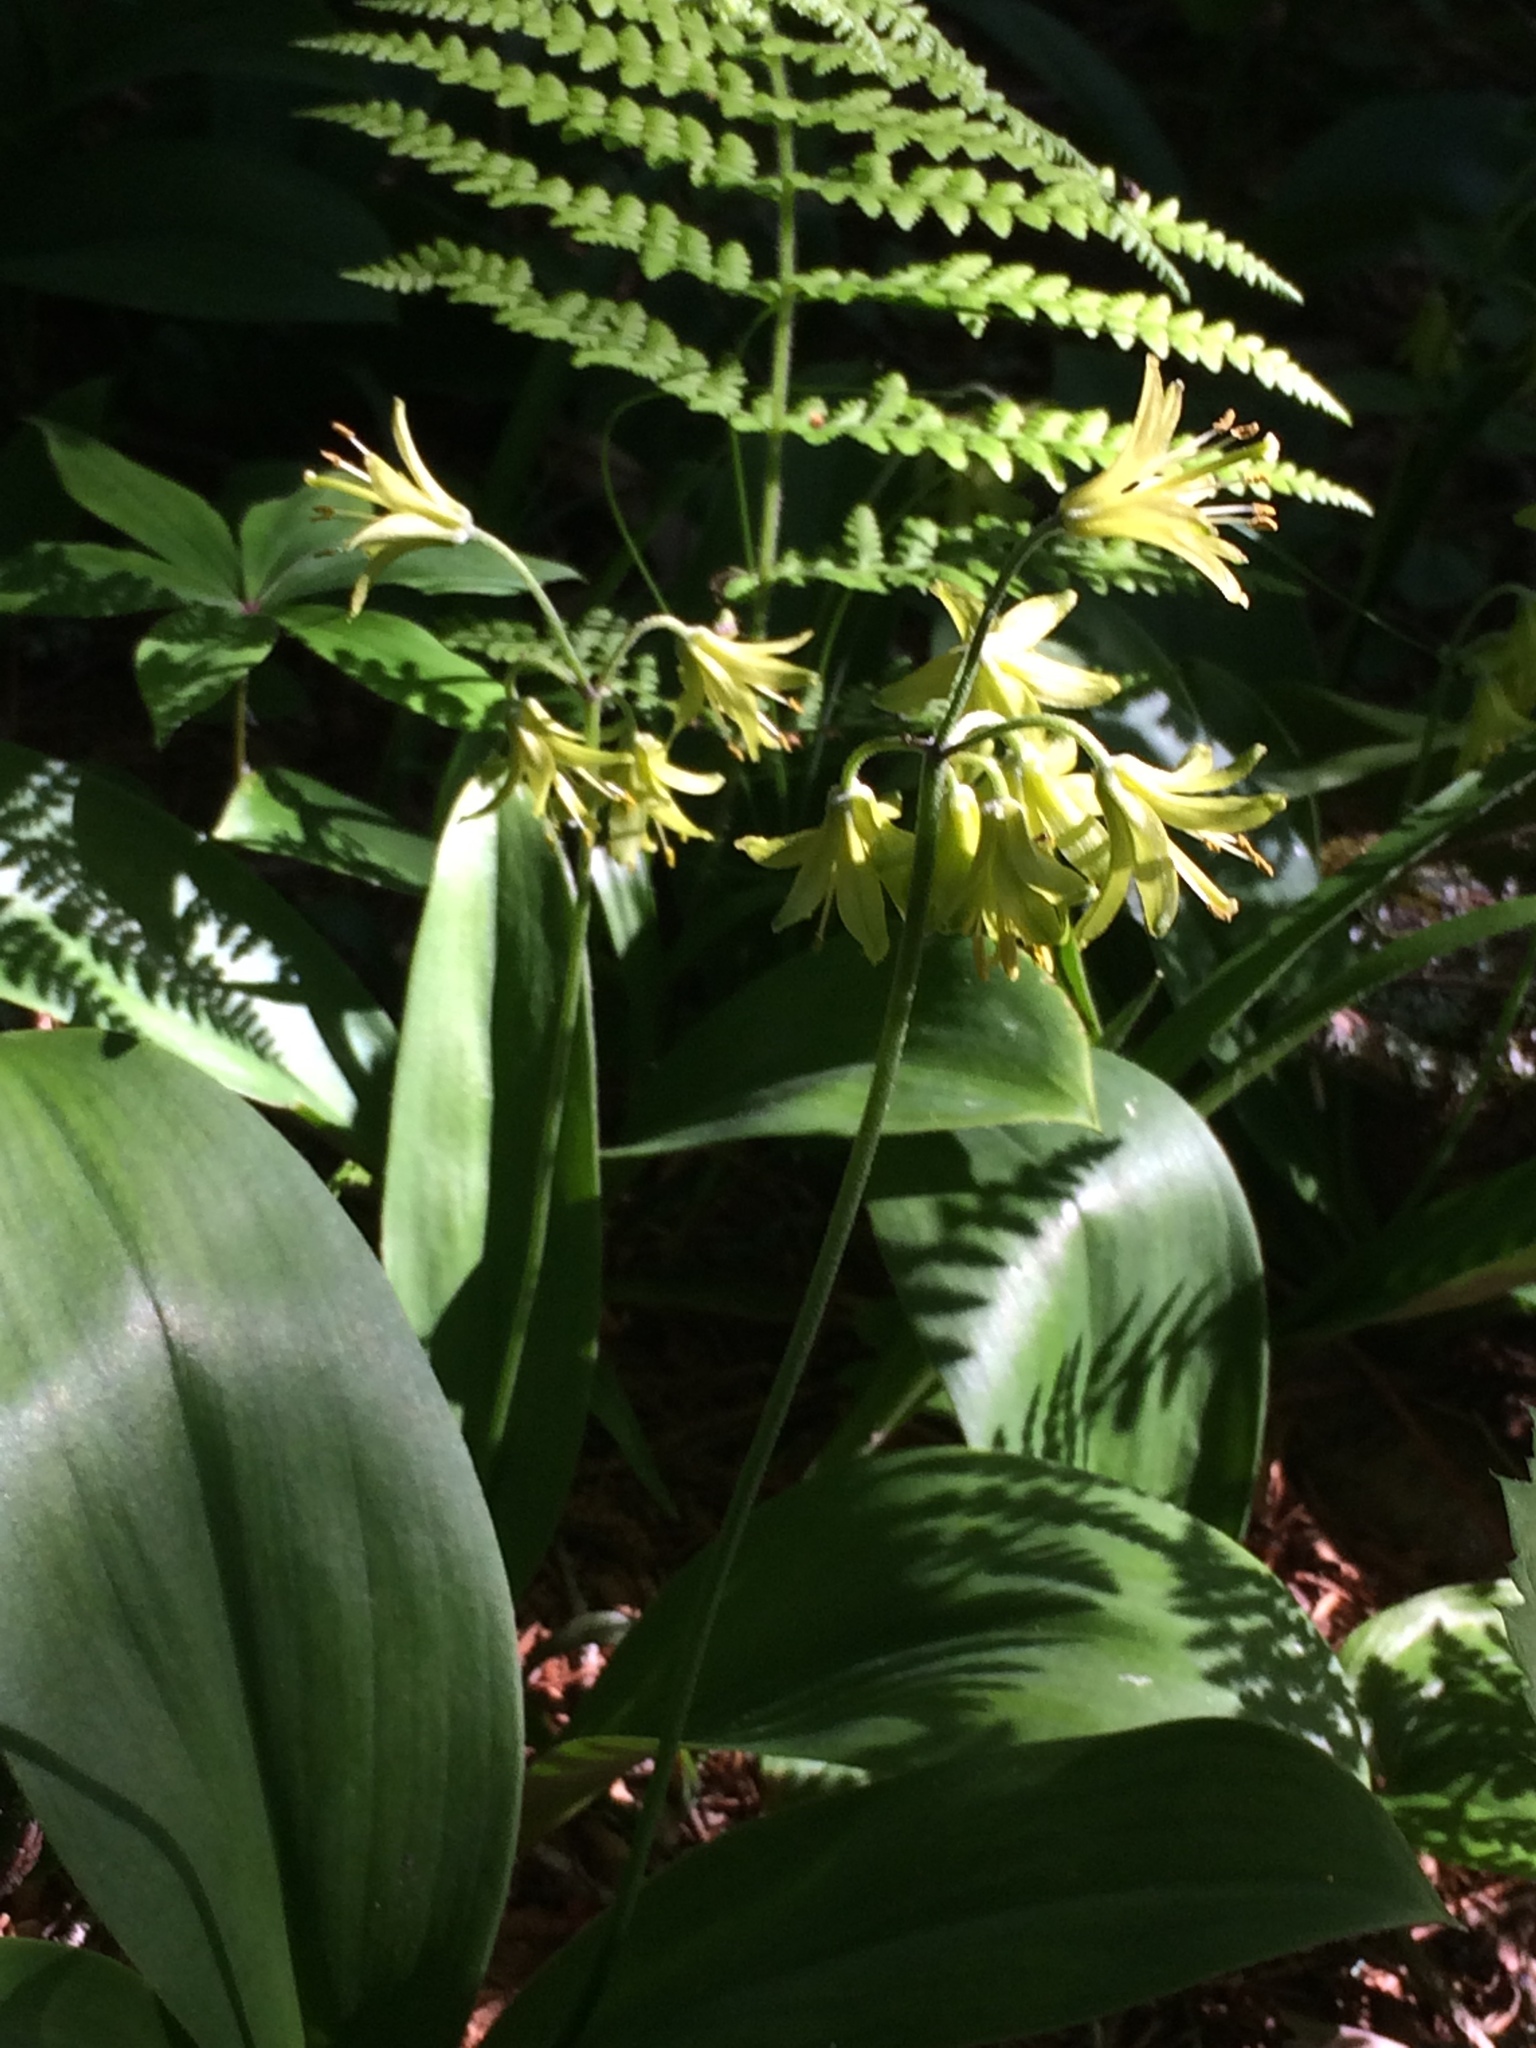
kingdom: Plantae
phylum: Tracheophyta
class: Liliopsida
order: Liliales
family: Liliaceae
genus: Clintonia
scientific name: Clintonia borealis
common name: Yellow clintonia
